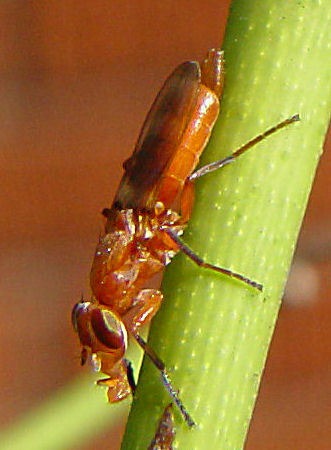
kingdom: Animalia
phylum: Arthropoda
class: Insecta
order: Diptera
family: Ulidiidae
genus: Zacompsia
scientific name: Zacompsia fulva
